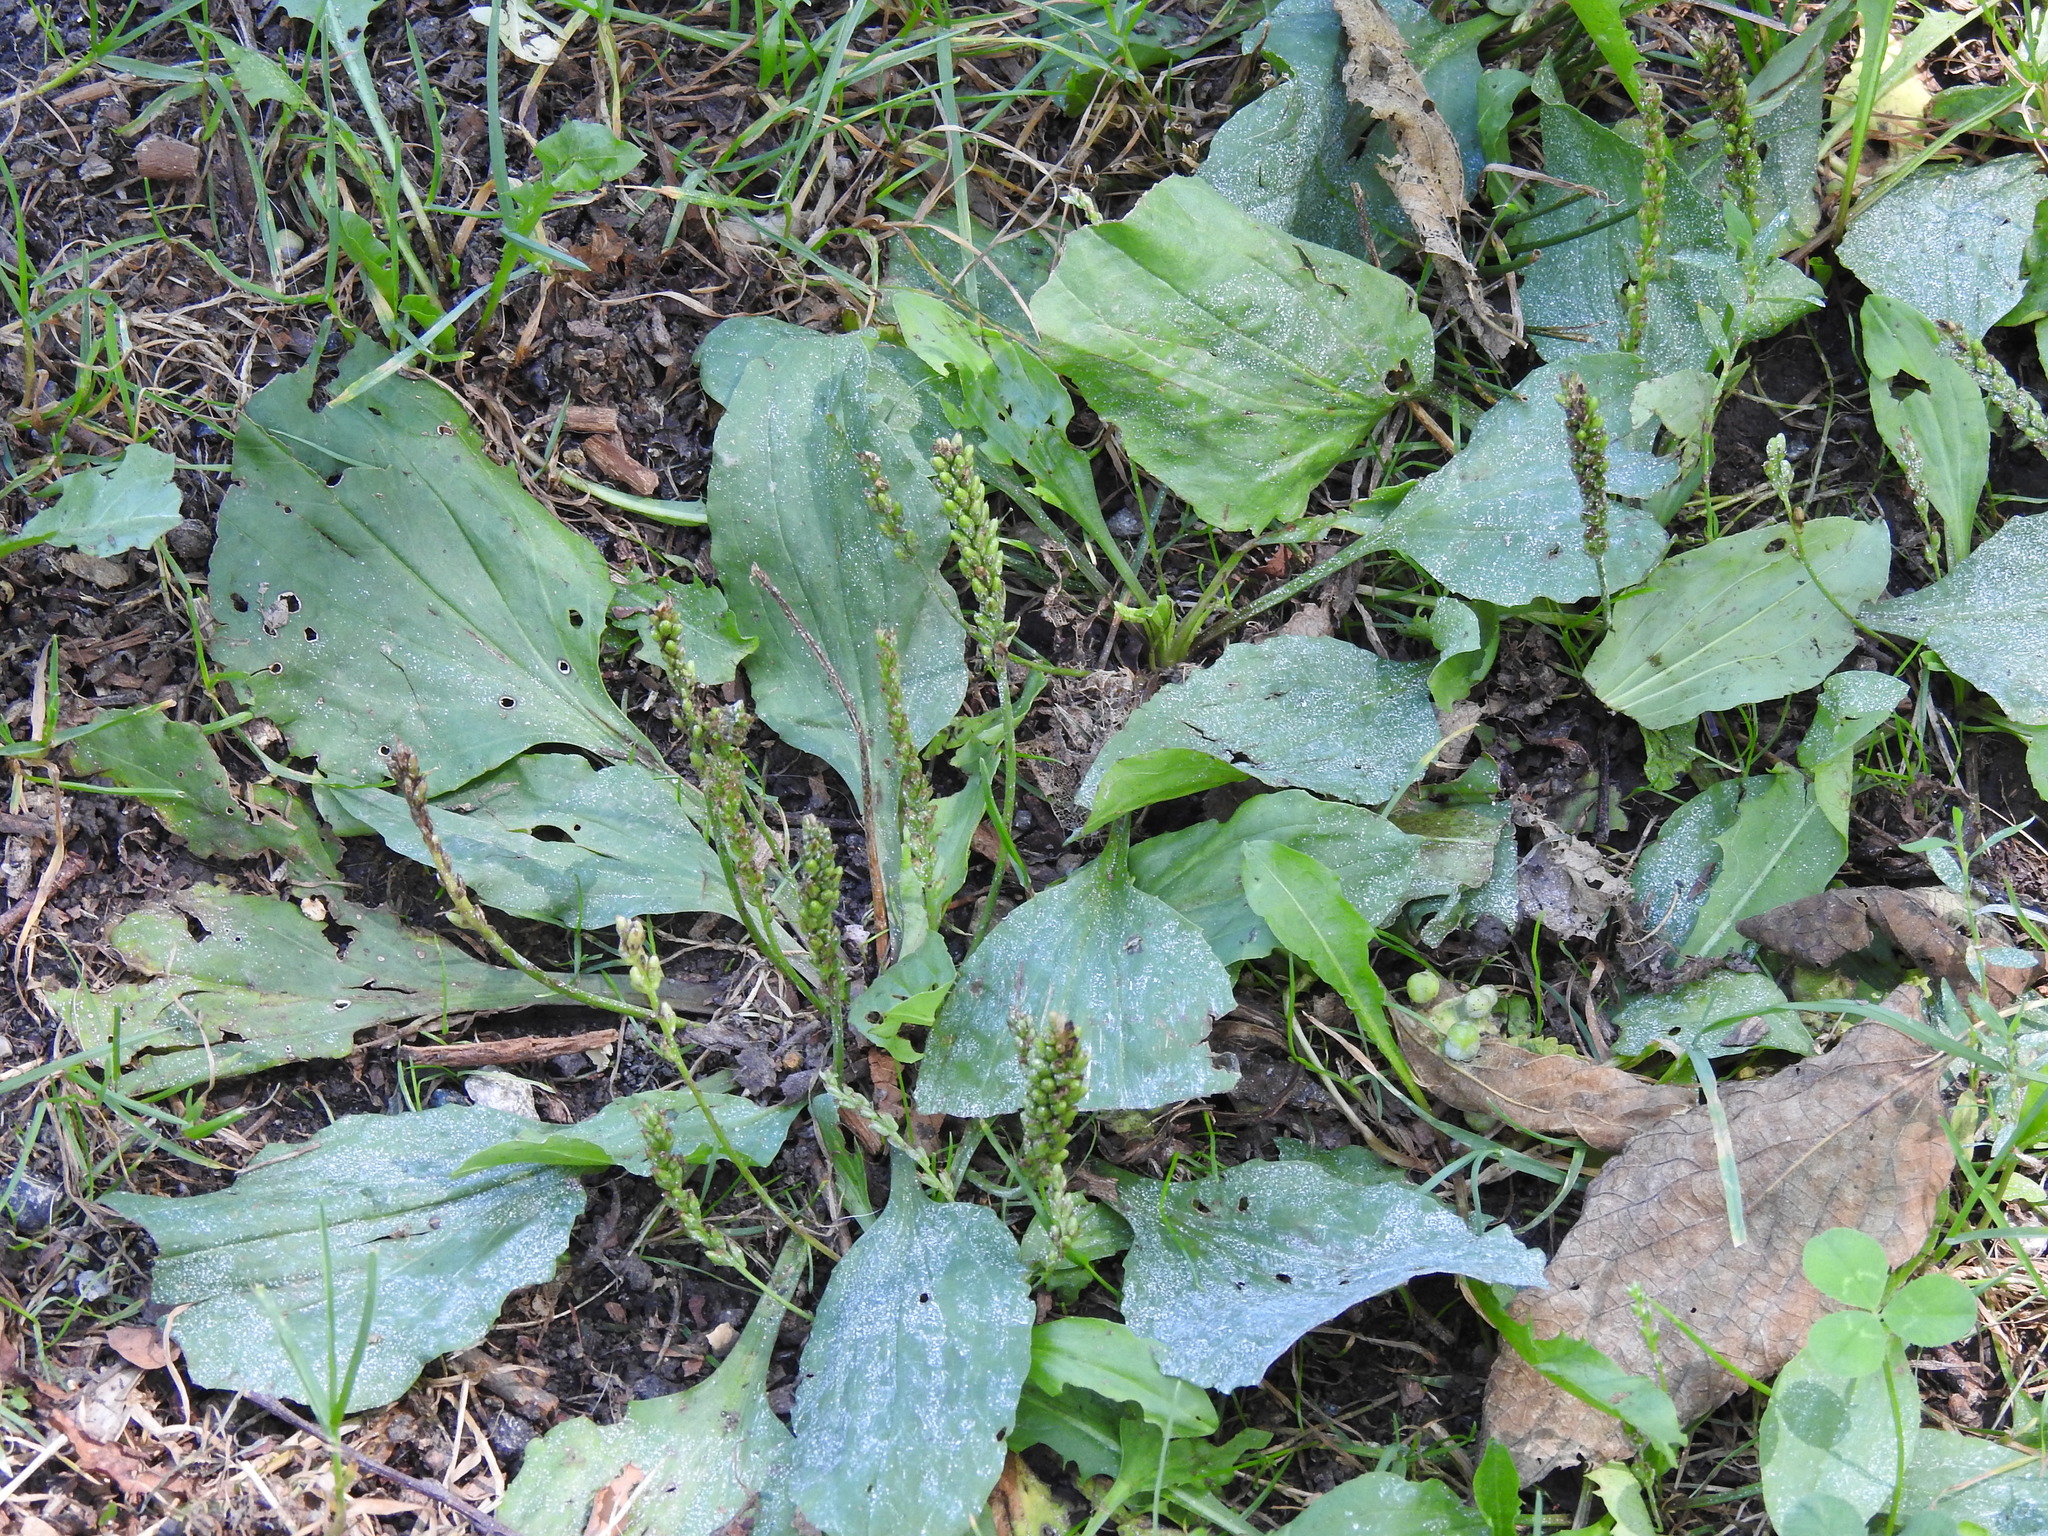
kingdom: Plantae
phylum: Tracheophyta
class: Magnoliopsida
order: Lamiales
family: Plantaginaceae
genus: Plantago
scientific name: Plantago major
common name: Common plantain
